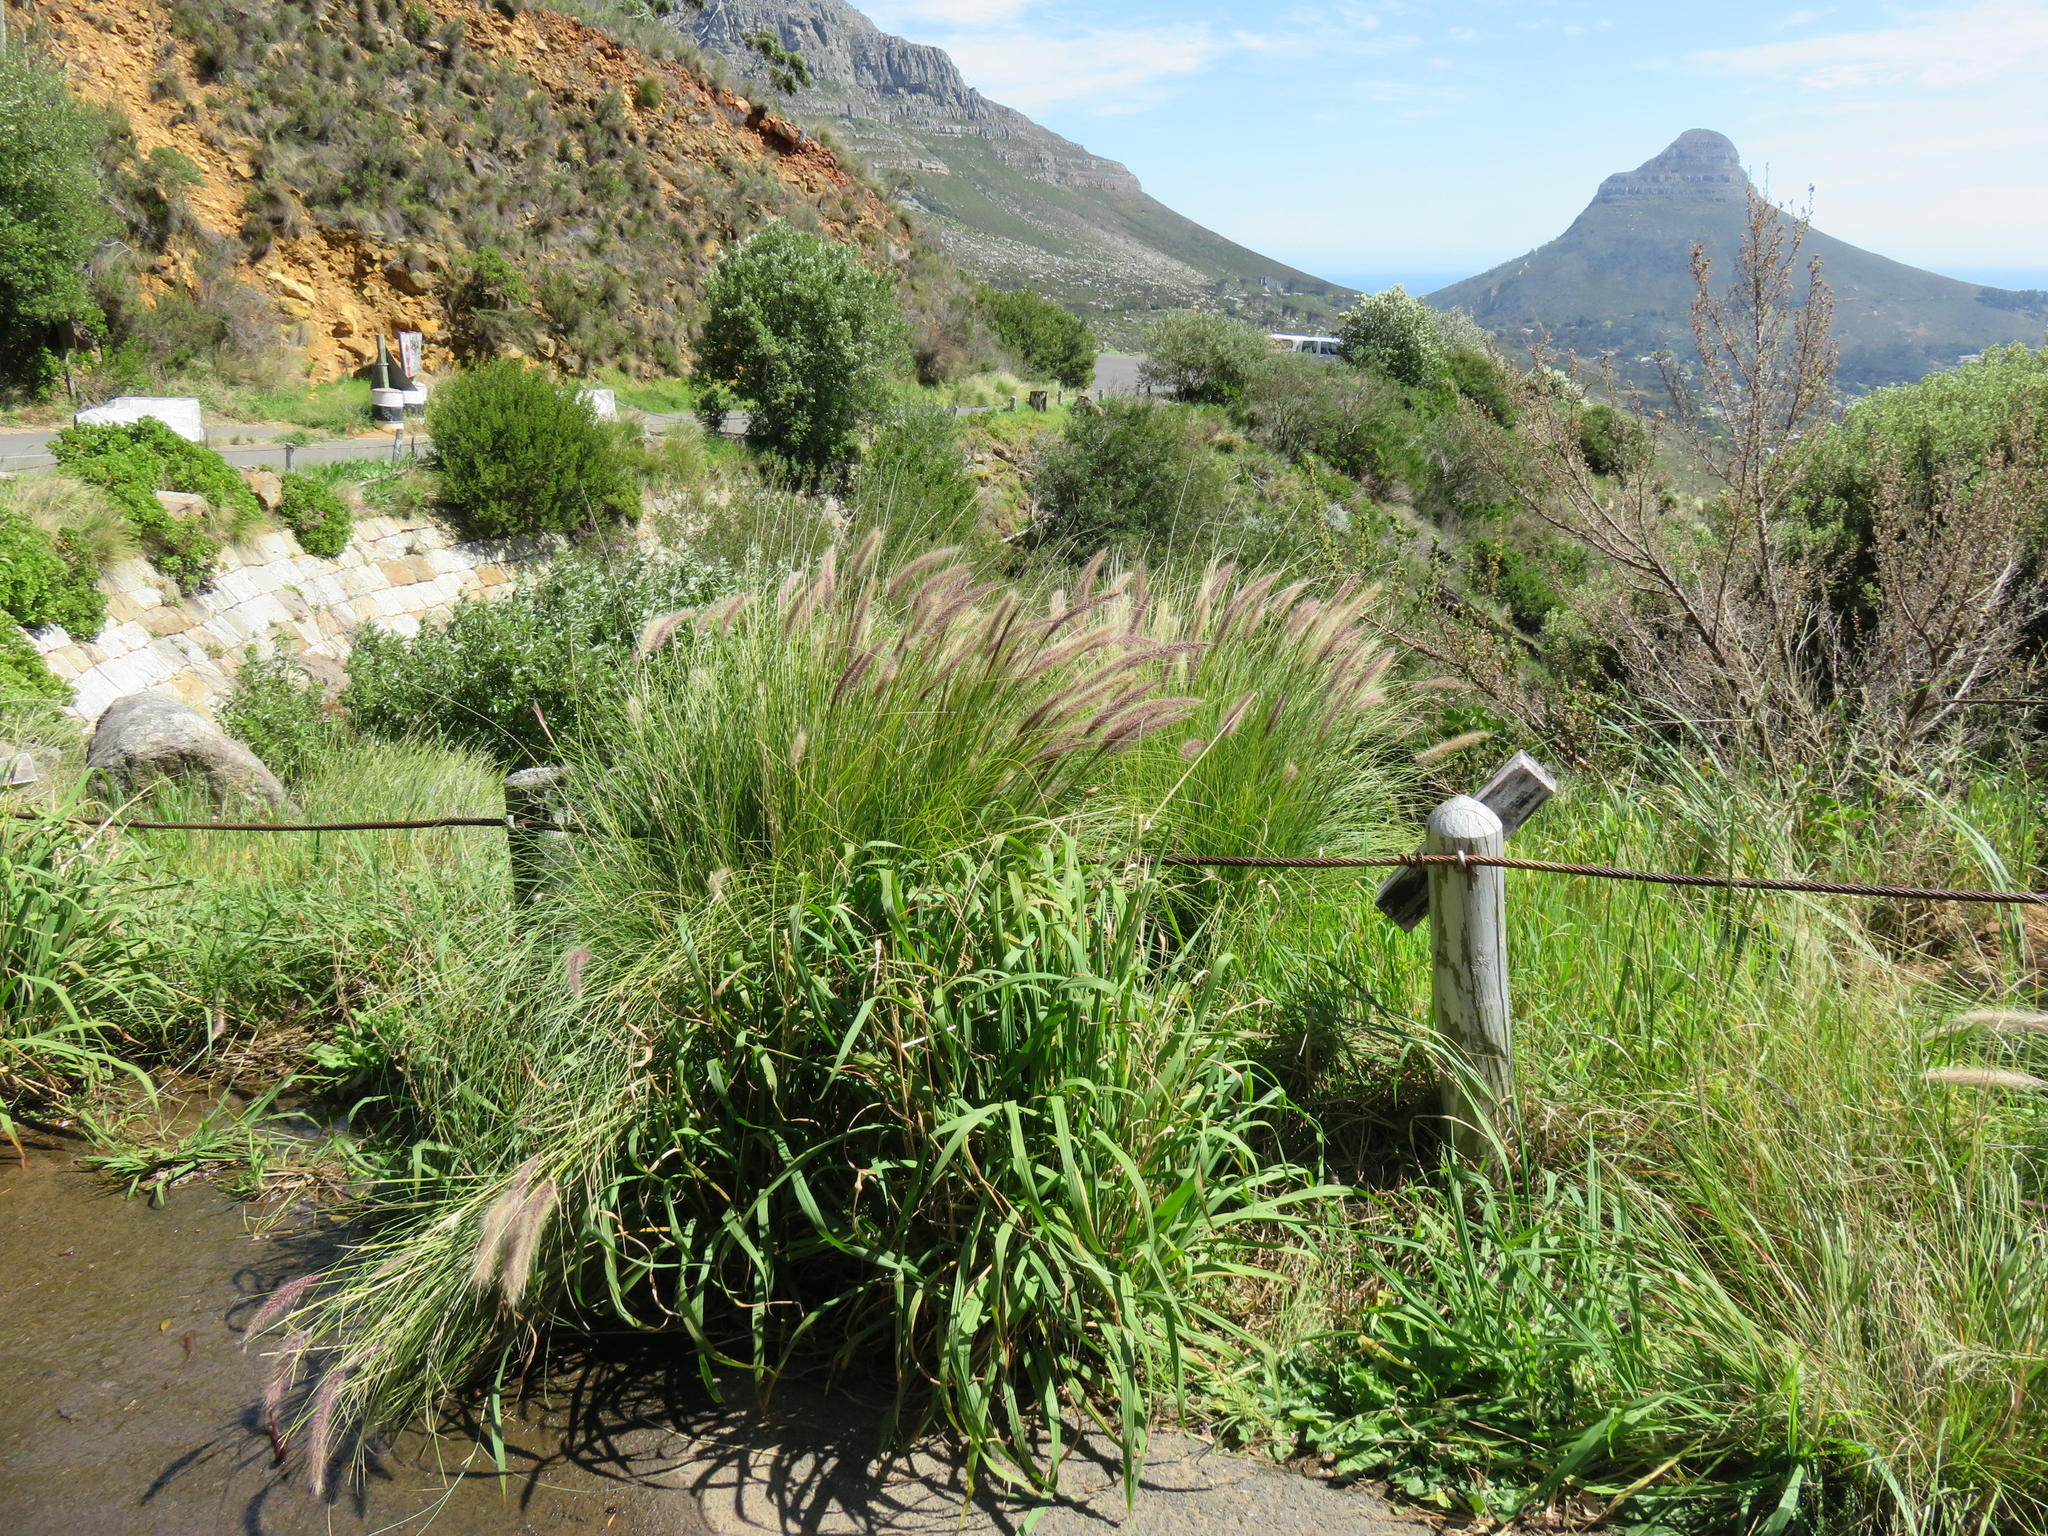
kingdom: Plantae
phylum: Tracheophyta
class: Liliopsida
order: Poales
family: Poaceae
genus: Cenchrus
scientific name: Cenchrus setaceus
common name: Crimson fountaingrass
